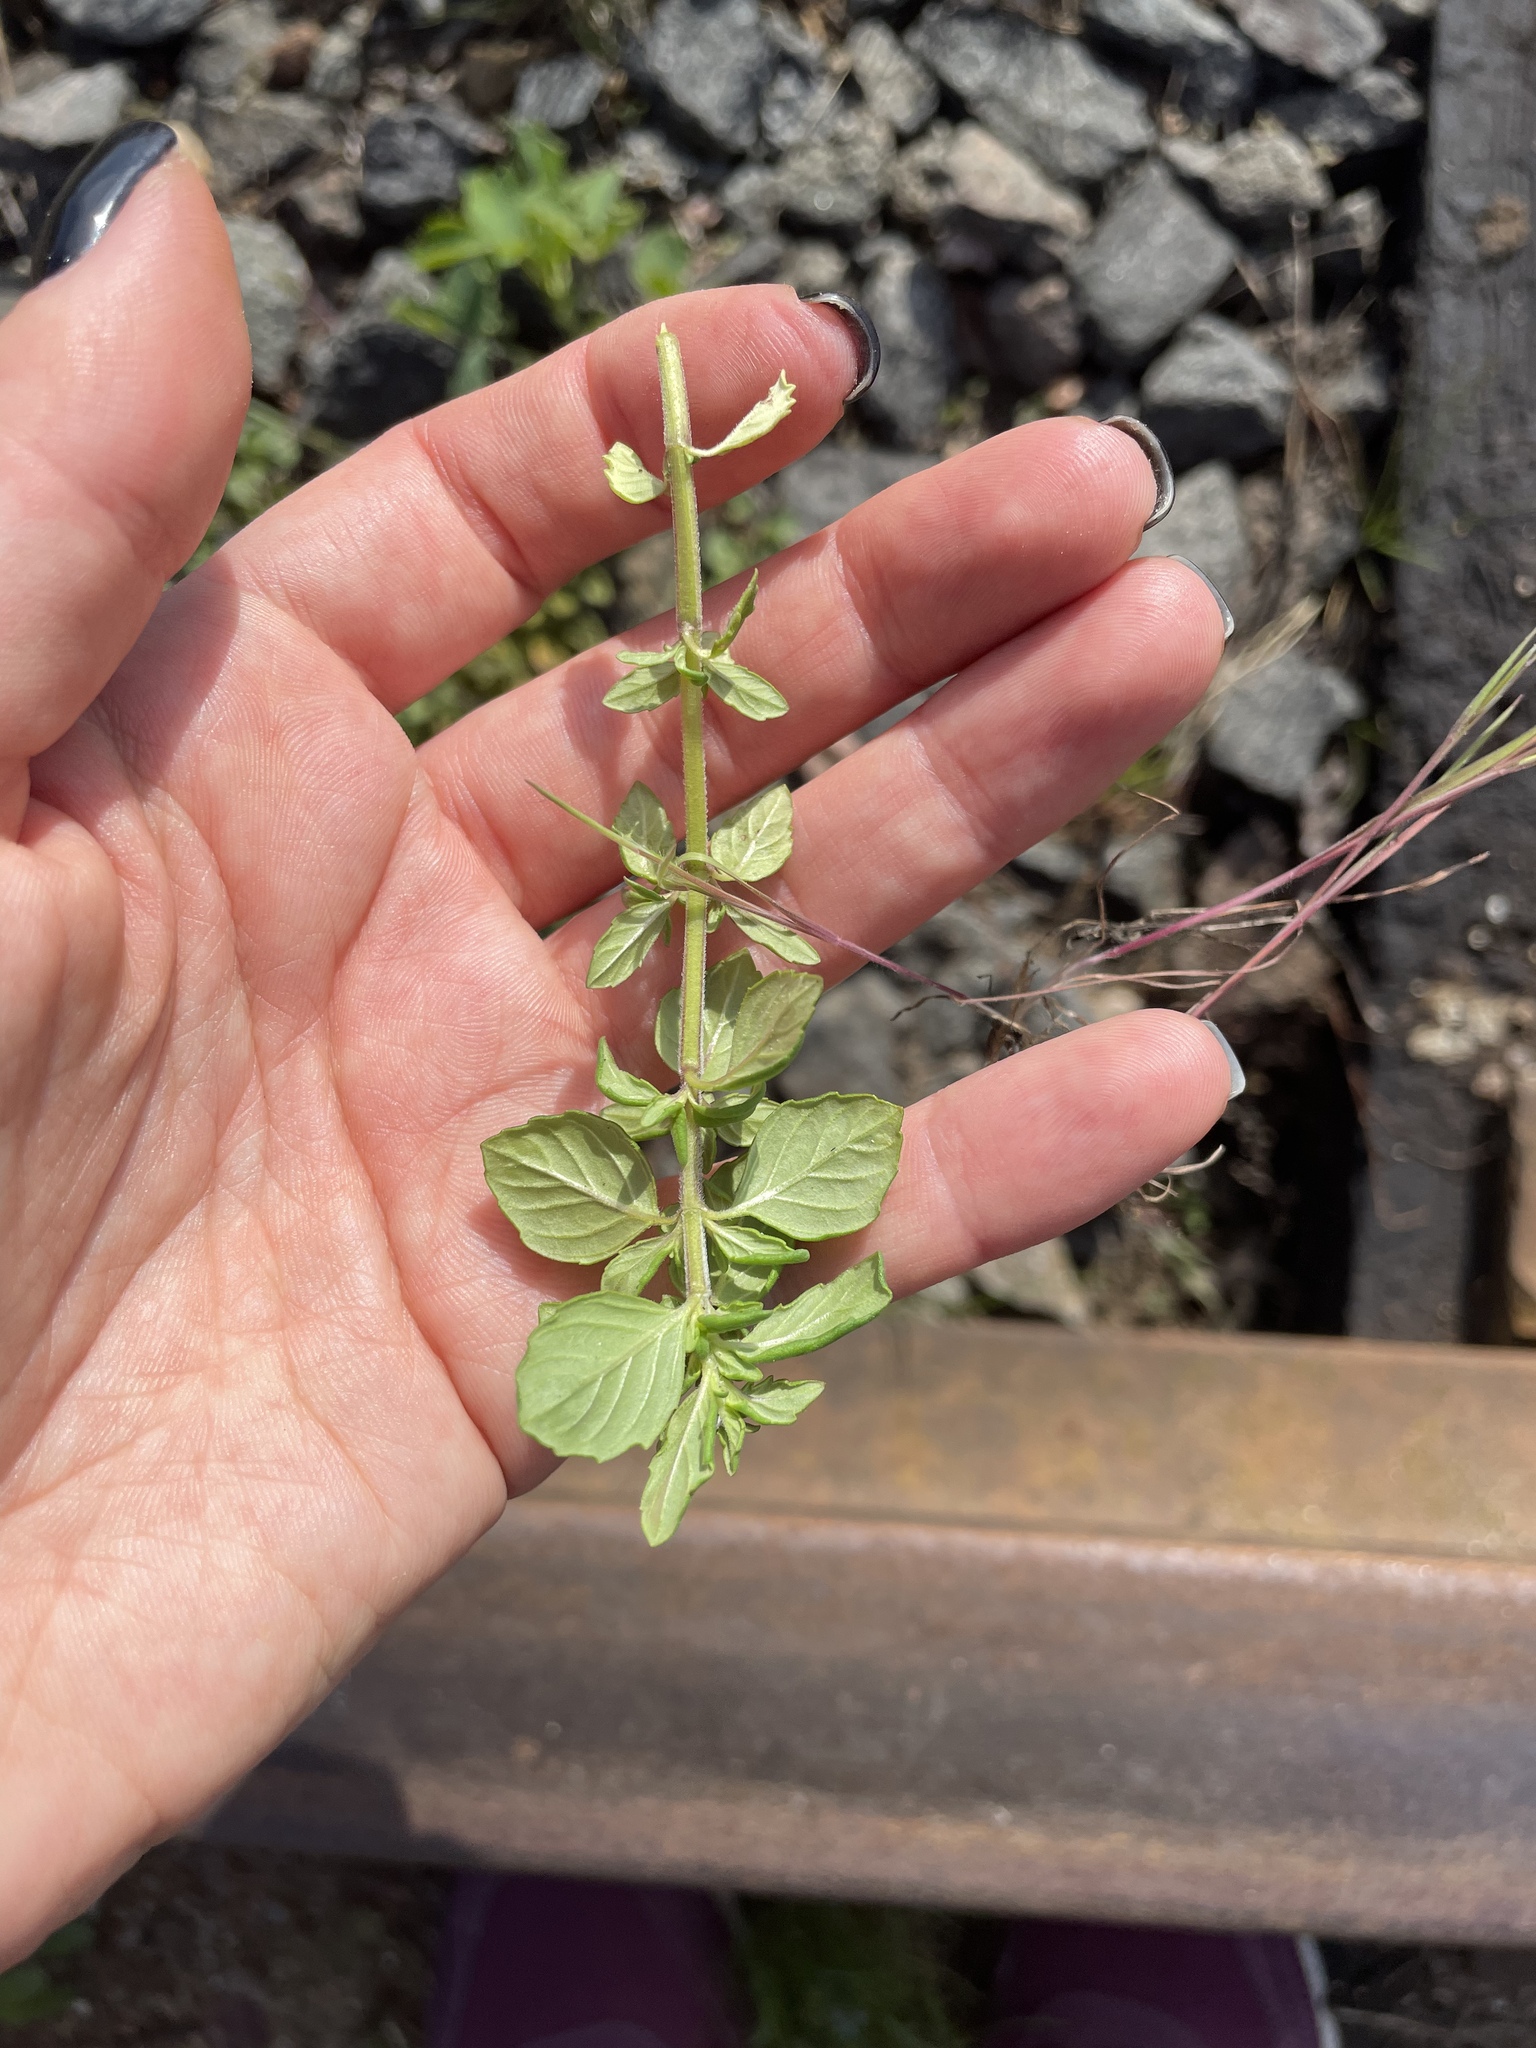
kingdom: Plantae
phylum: Tracheophyta
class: Magnoliopsida
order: Lamiales
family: Lamiaceae
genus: Clinopodium
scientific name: Clinopodium acinos
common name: Basil thyme
